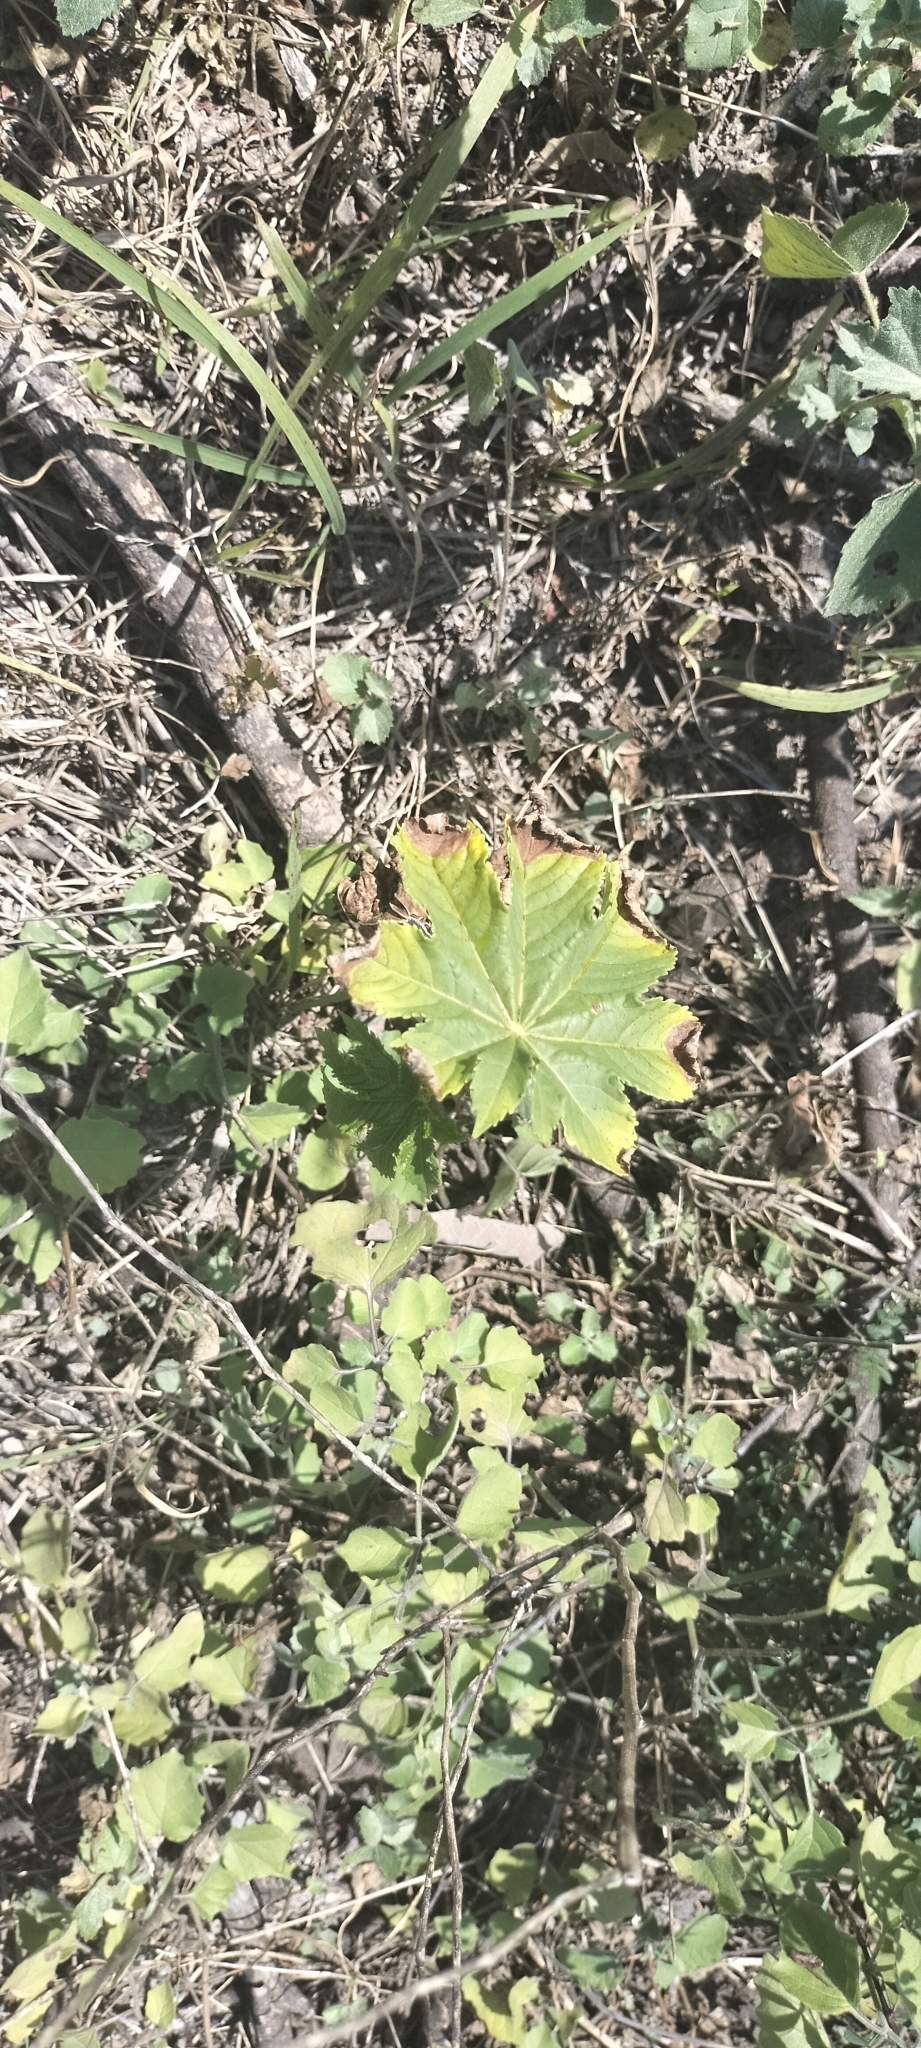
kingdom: Plantae
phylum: Tracheophyta
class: Magnoliopsida
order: Malpighiales
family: Euphorbiaceae
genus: Ricinus
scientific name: Ricinus communis
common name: Castor-oil-plant
